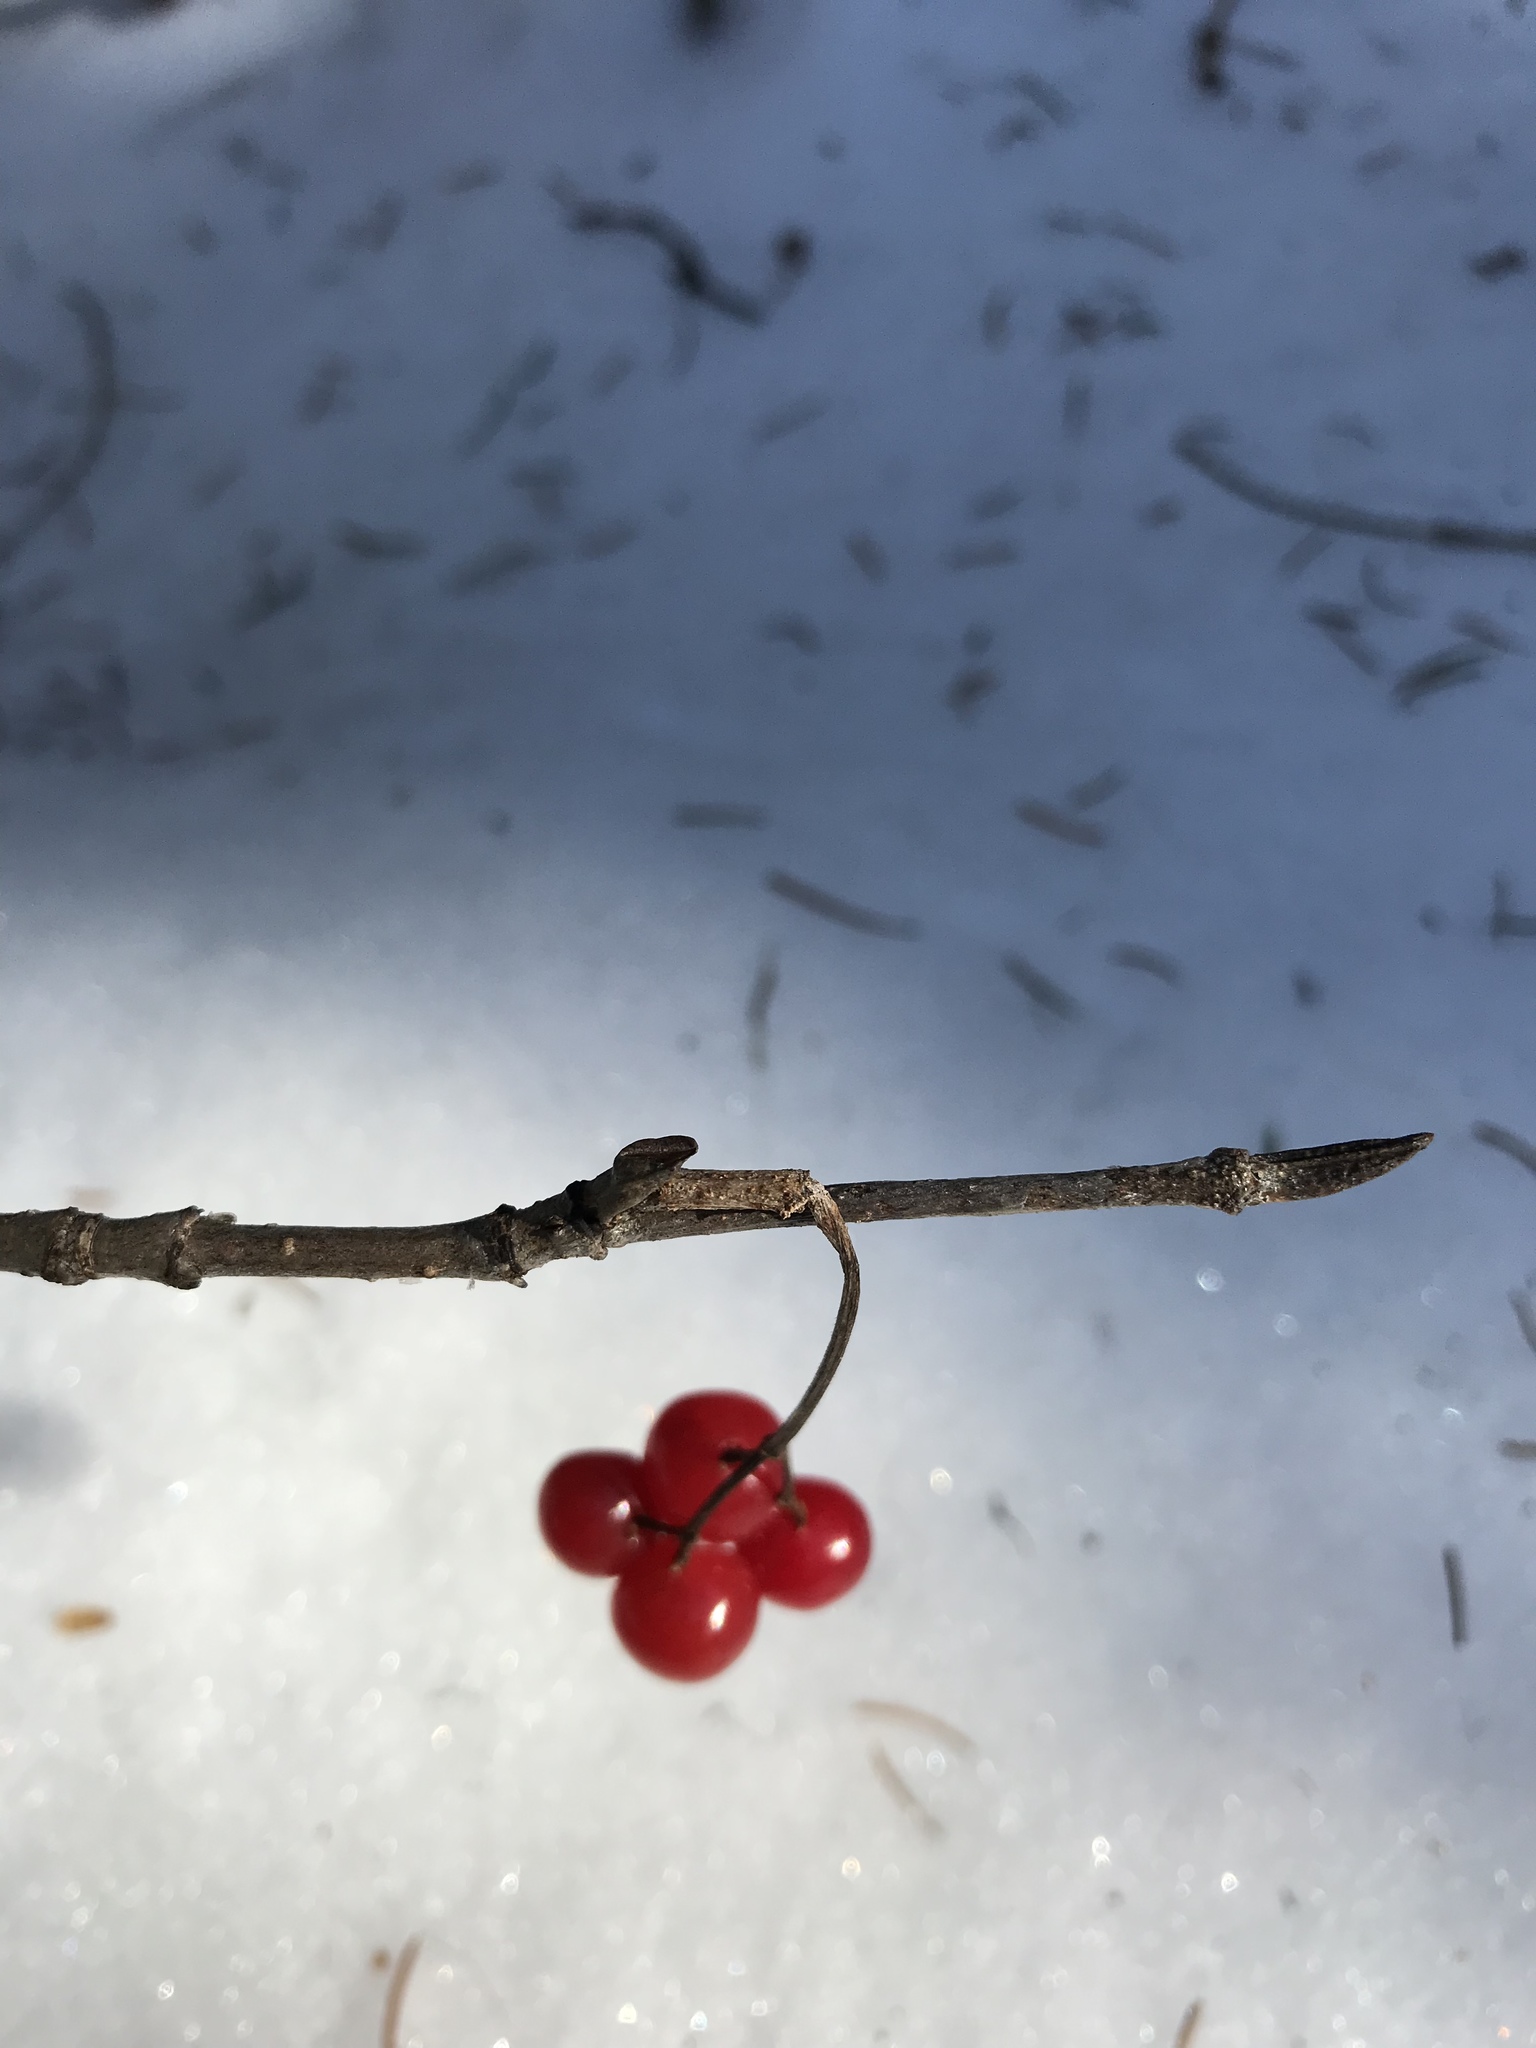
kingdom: Plantae
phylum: Tracheophyta
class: Magnoliopsida
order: Dipsacales
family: Viburnaceae
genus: Viburnum
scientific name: Viburnum edule
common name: Mooseberry
